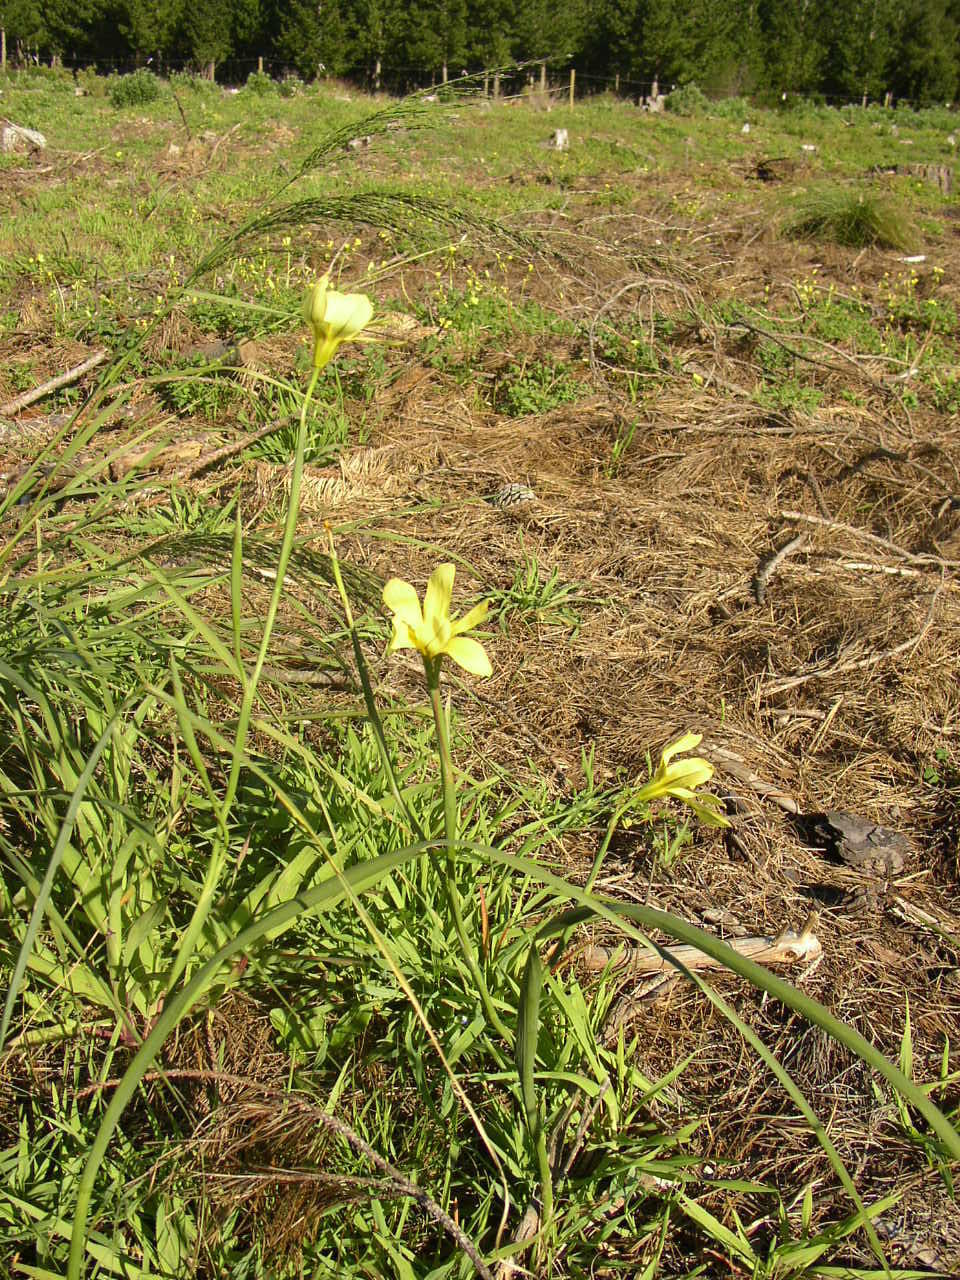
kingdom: Plantae
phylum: Tracheophyta
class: Liliopsida
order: Asparagales
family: Iridaceae
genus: Moraea
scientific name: Moraea collina
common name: Cape-tulip
